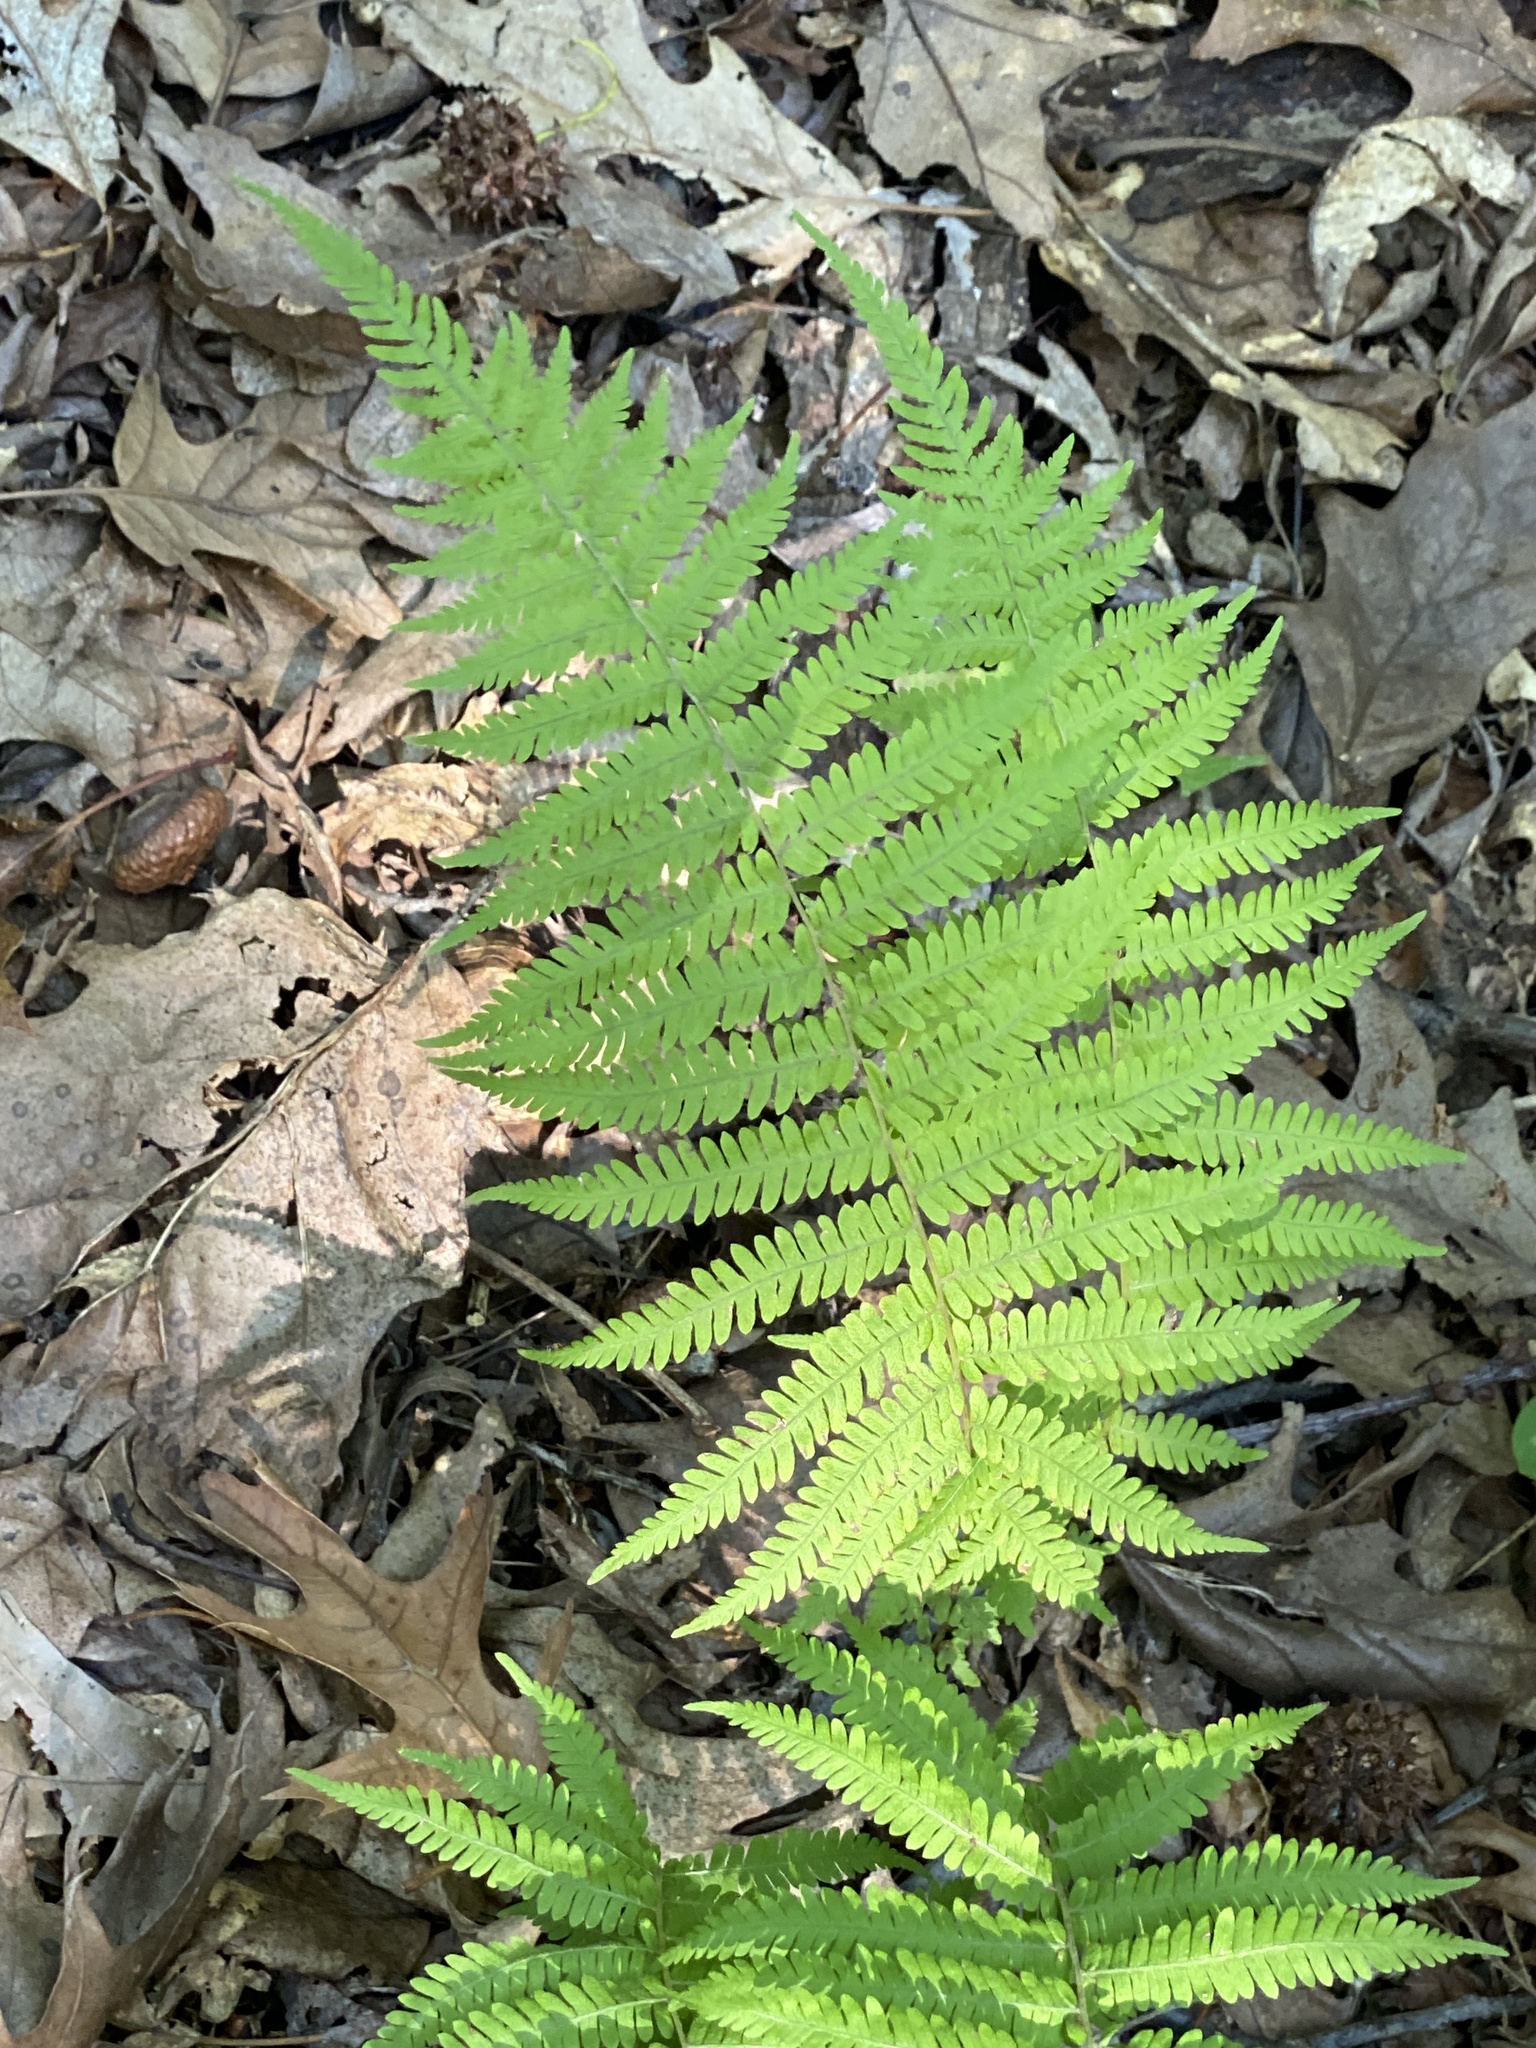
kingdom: Plantae
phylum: Tracheophyta
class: Polypodiopsida
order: Polypodiales
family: Thelypteridaceae
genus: Amauropelta
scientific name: Amauropelta noveboracensis
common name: New york fern
